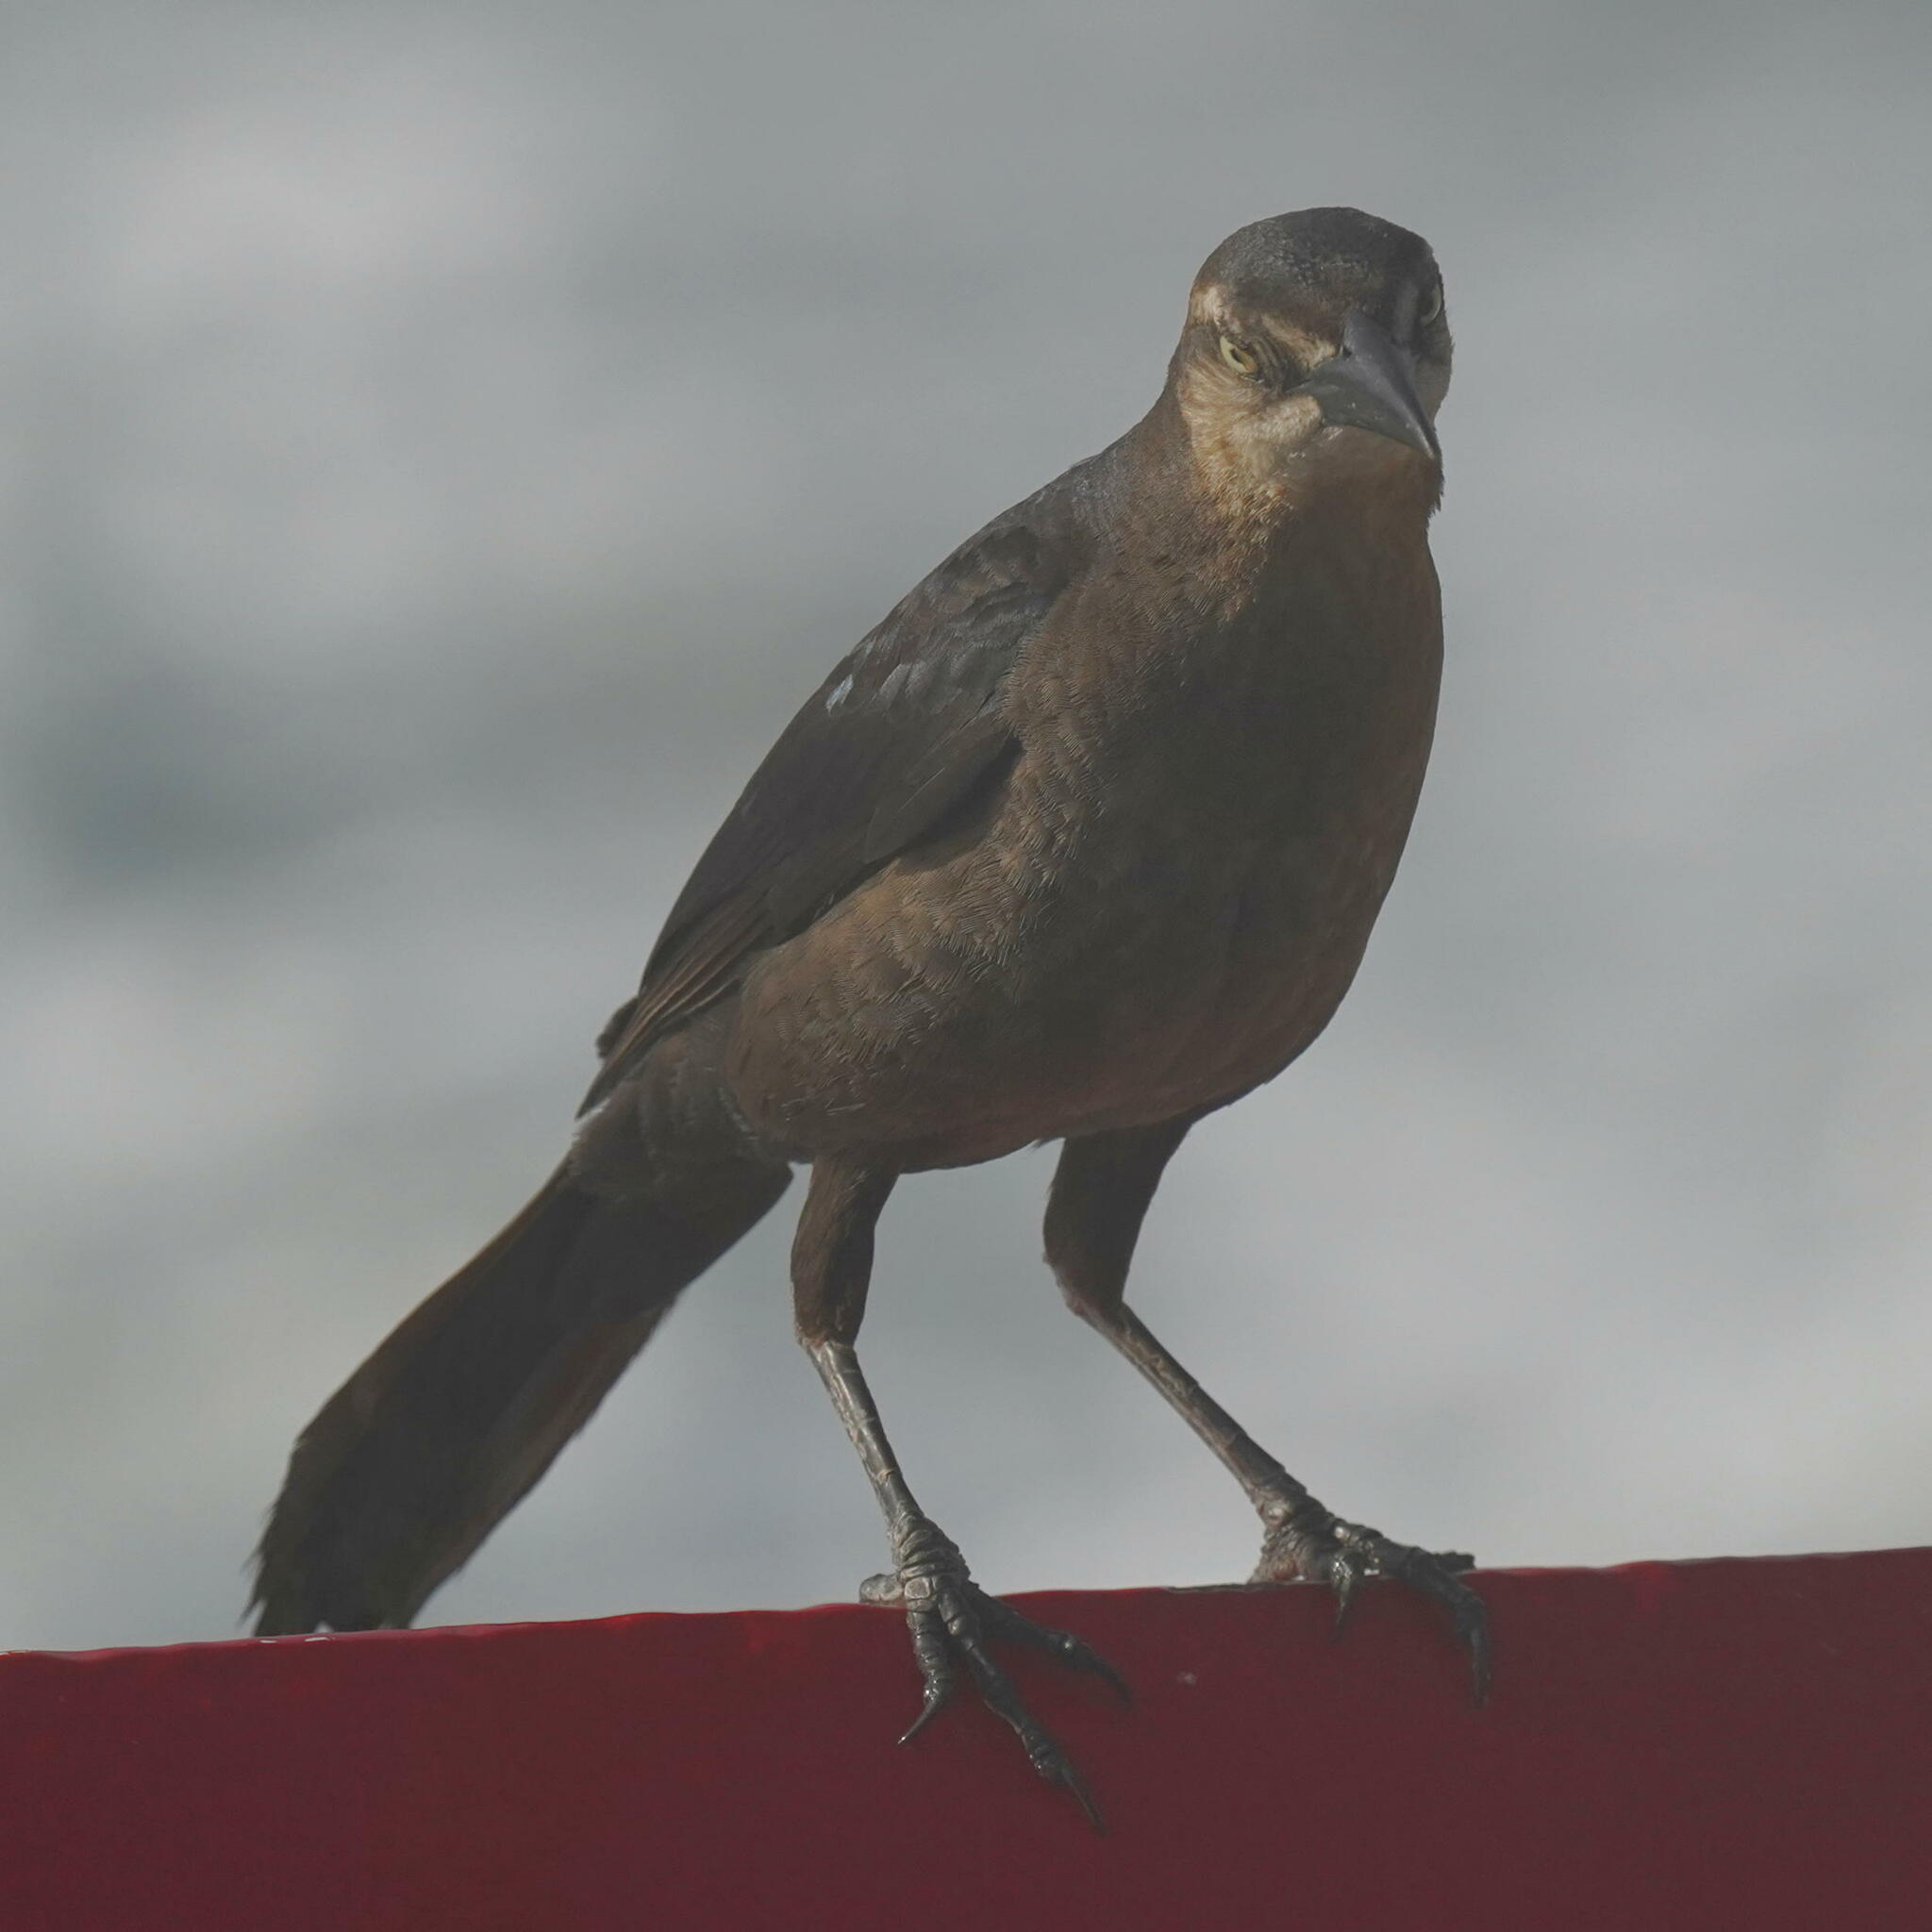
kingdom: Animalia
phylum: Chordata
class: Aves
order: Passeriformes
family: Icteridae
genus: Quiscalus
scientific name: Quiscalus mexicanus
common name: Great-tailed grackle
